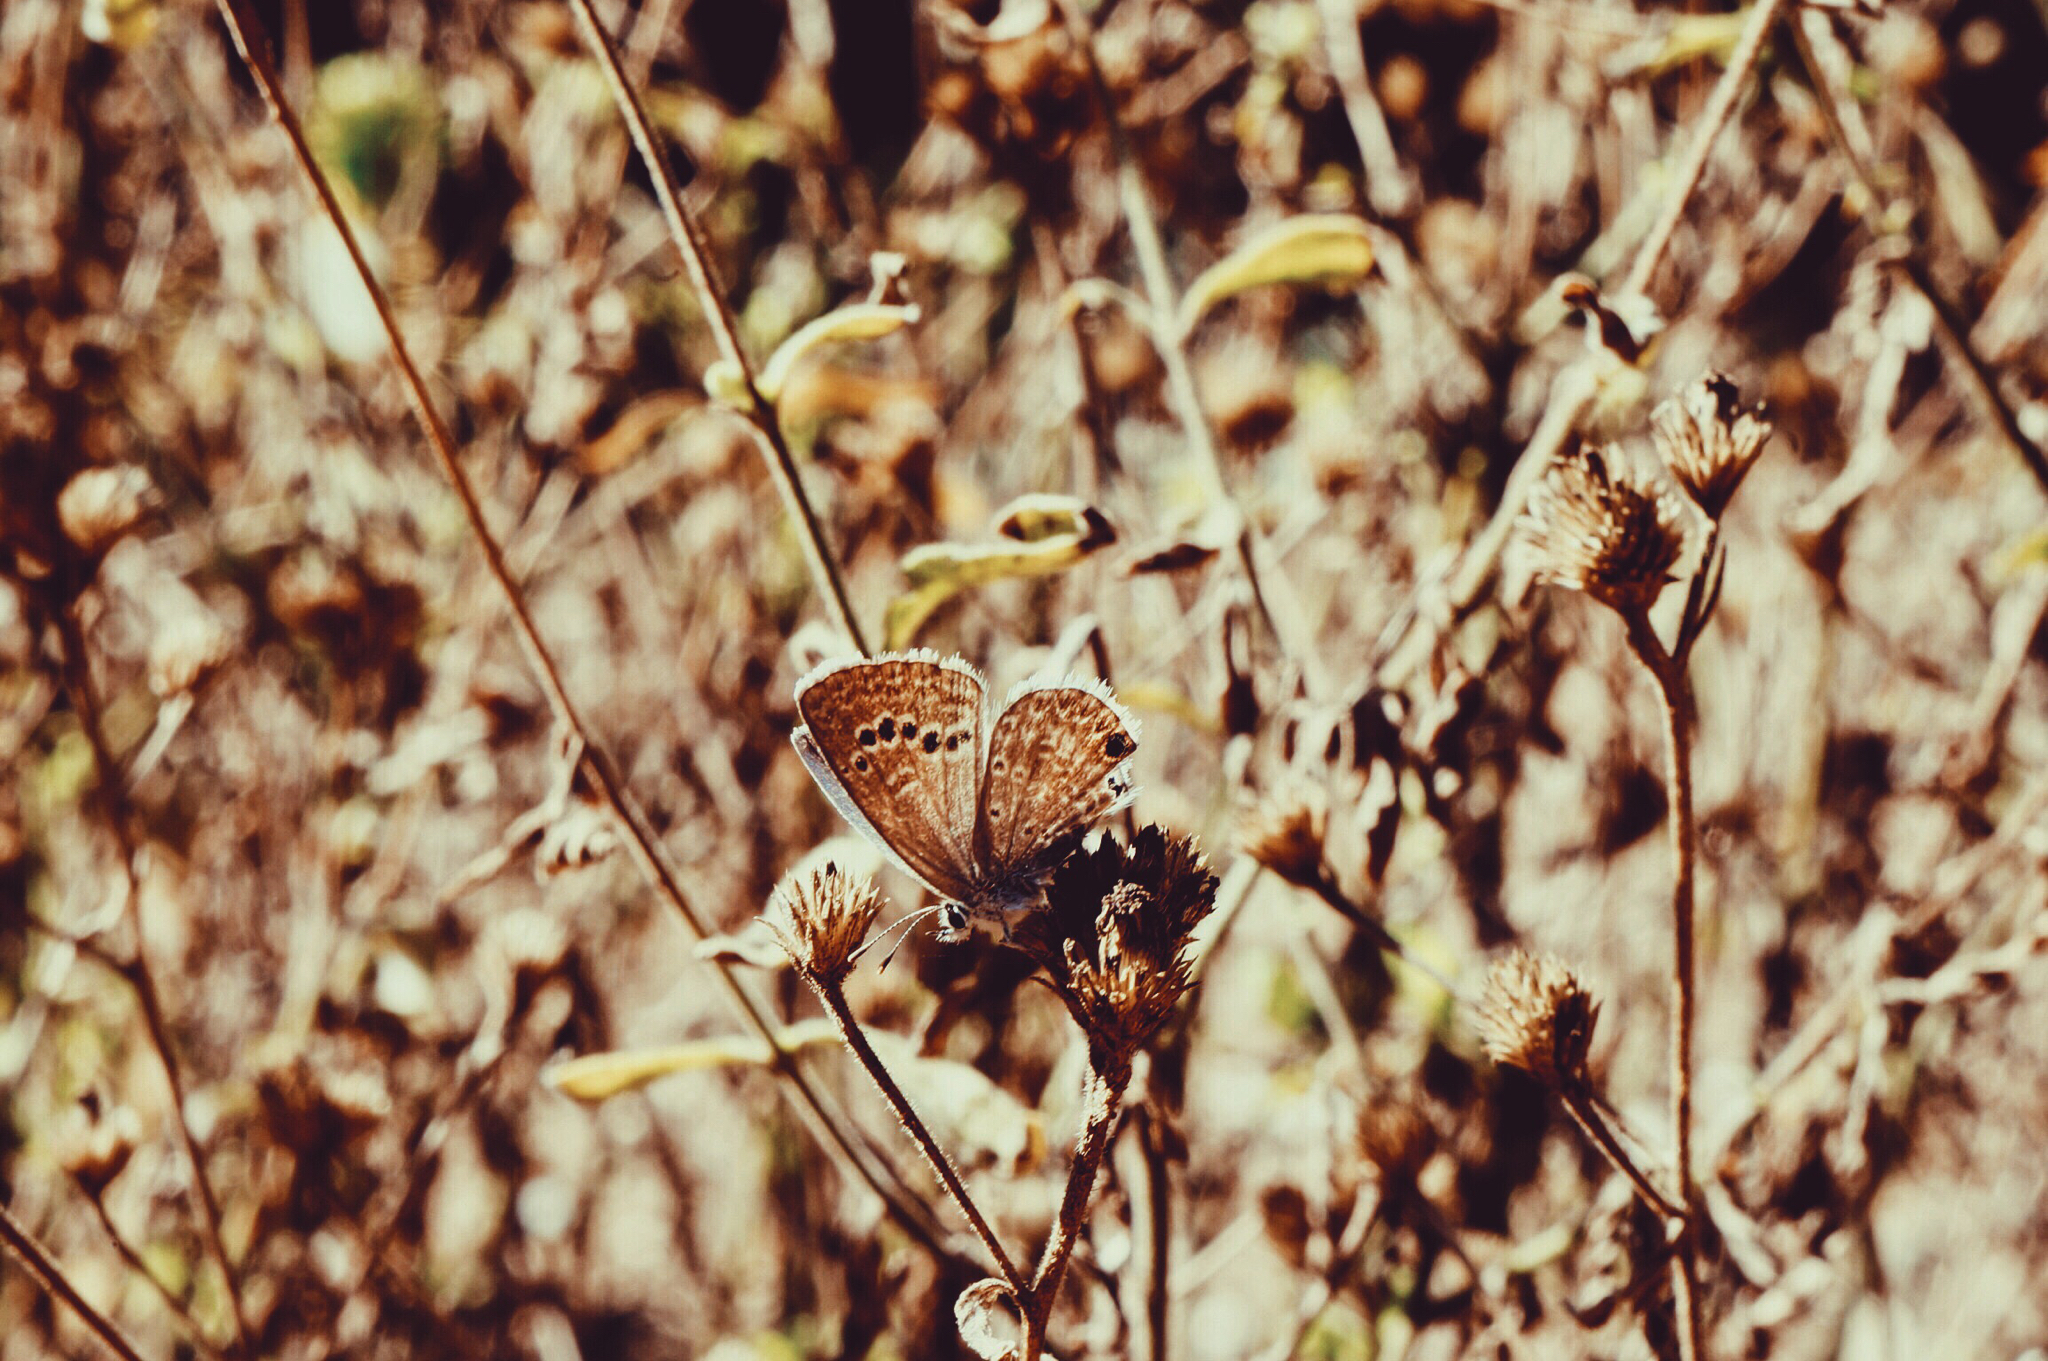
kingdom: Animalia
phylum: Arthropoda
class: Insecta
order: Lepidoptera
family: Lycaenidae
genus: Echinargus
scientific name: Echinargus isola
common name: Reakirt's blue
